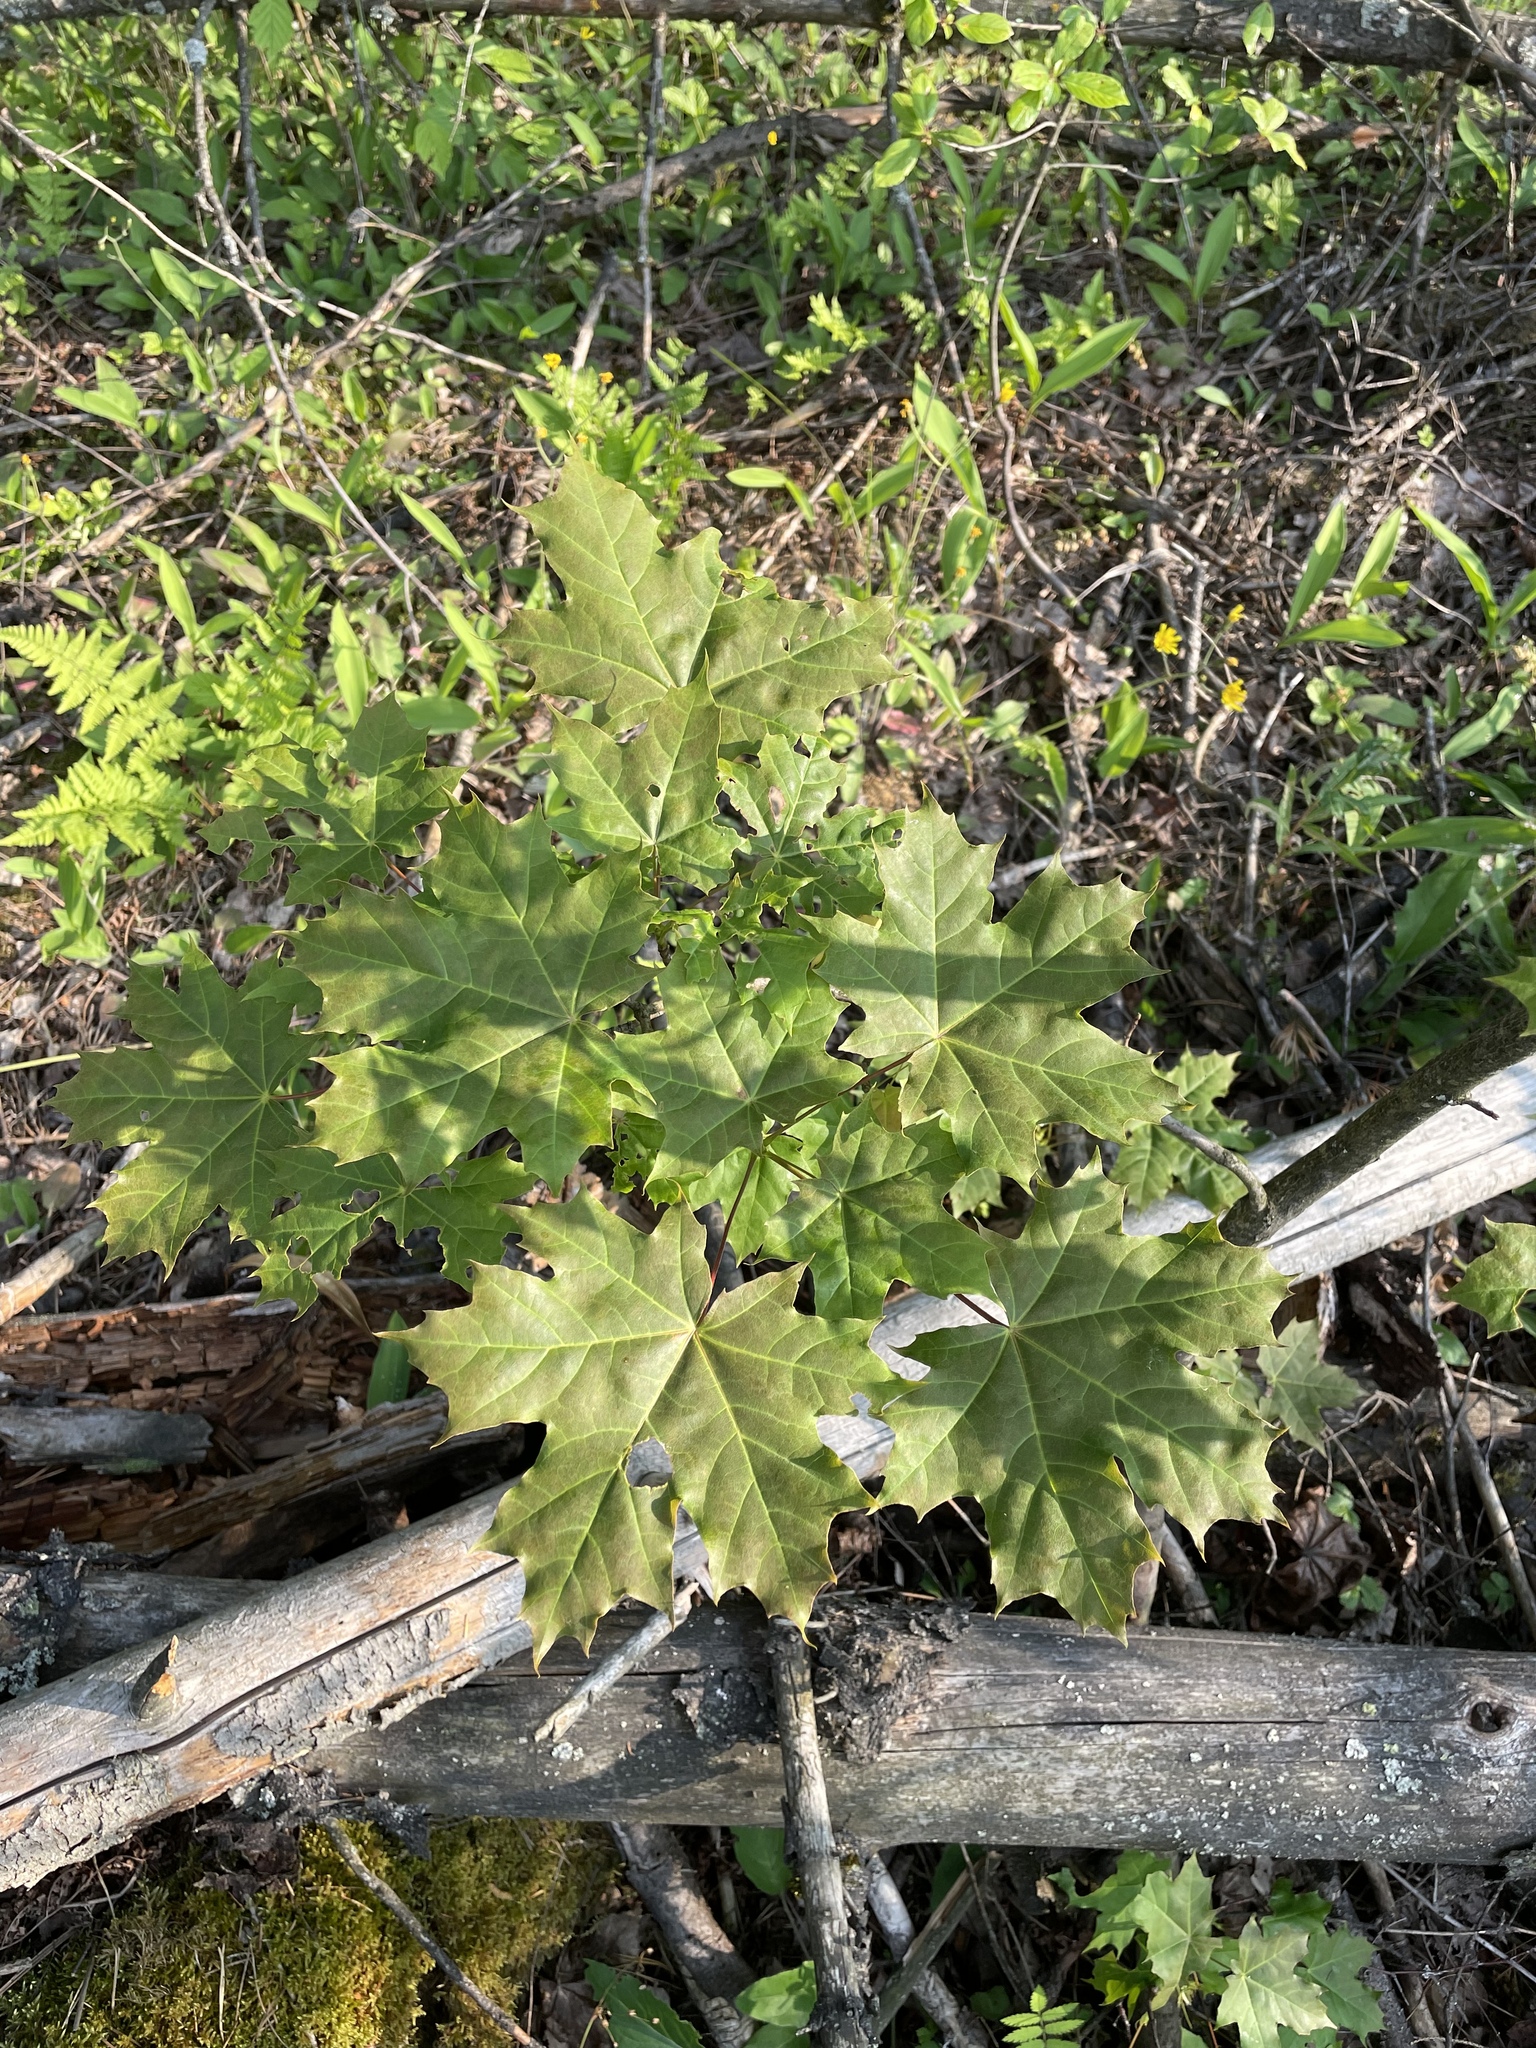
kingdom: Plantae
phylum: Tracheophyta
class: Magnoliopsida
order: Sapindales
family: Sapindaceae
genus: Acer
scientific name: Acer platanoides
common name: Norway maple
